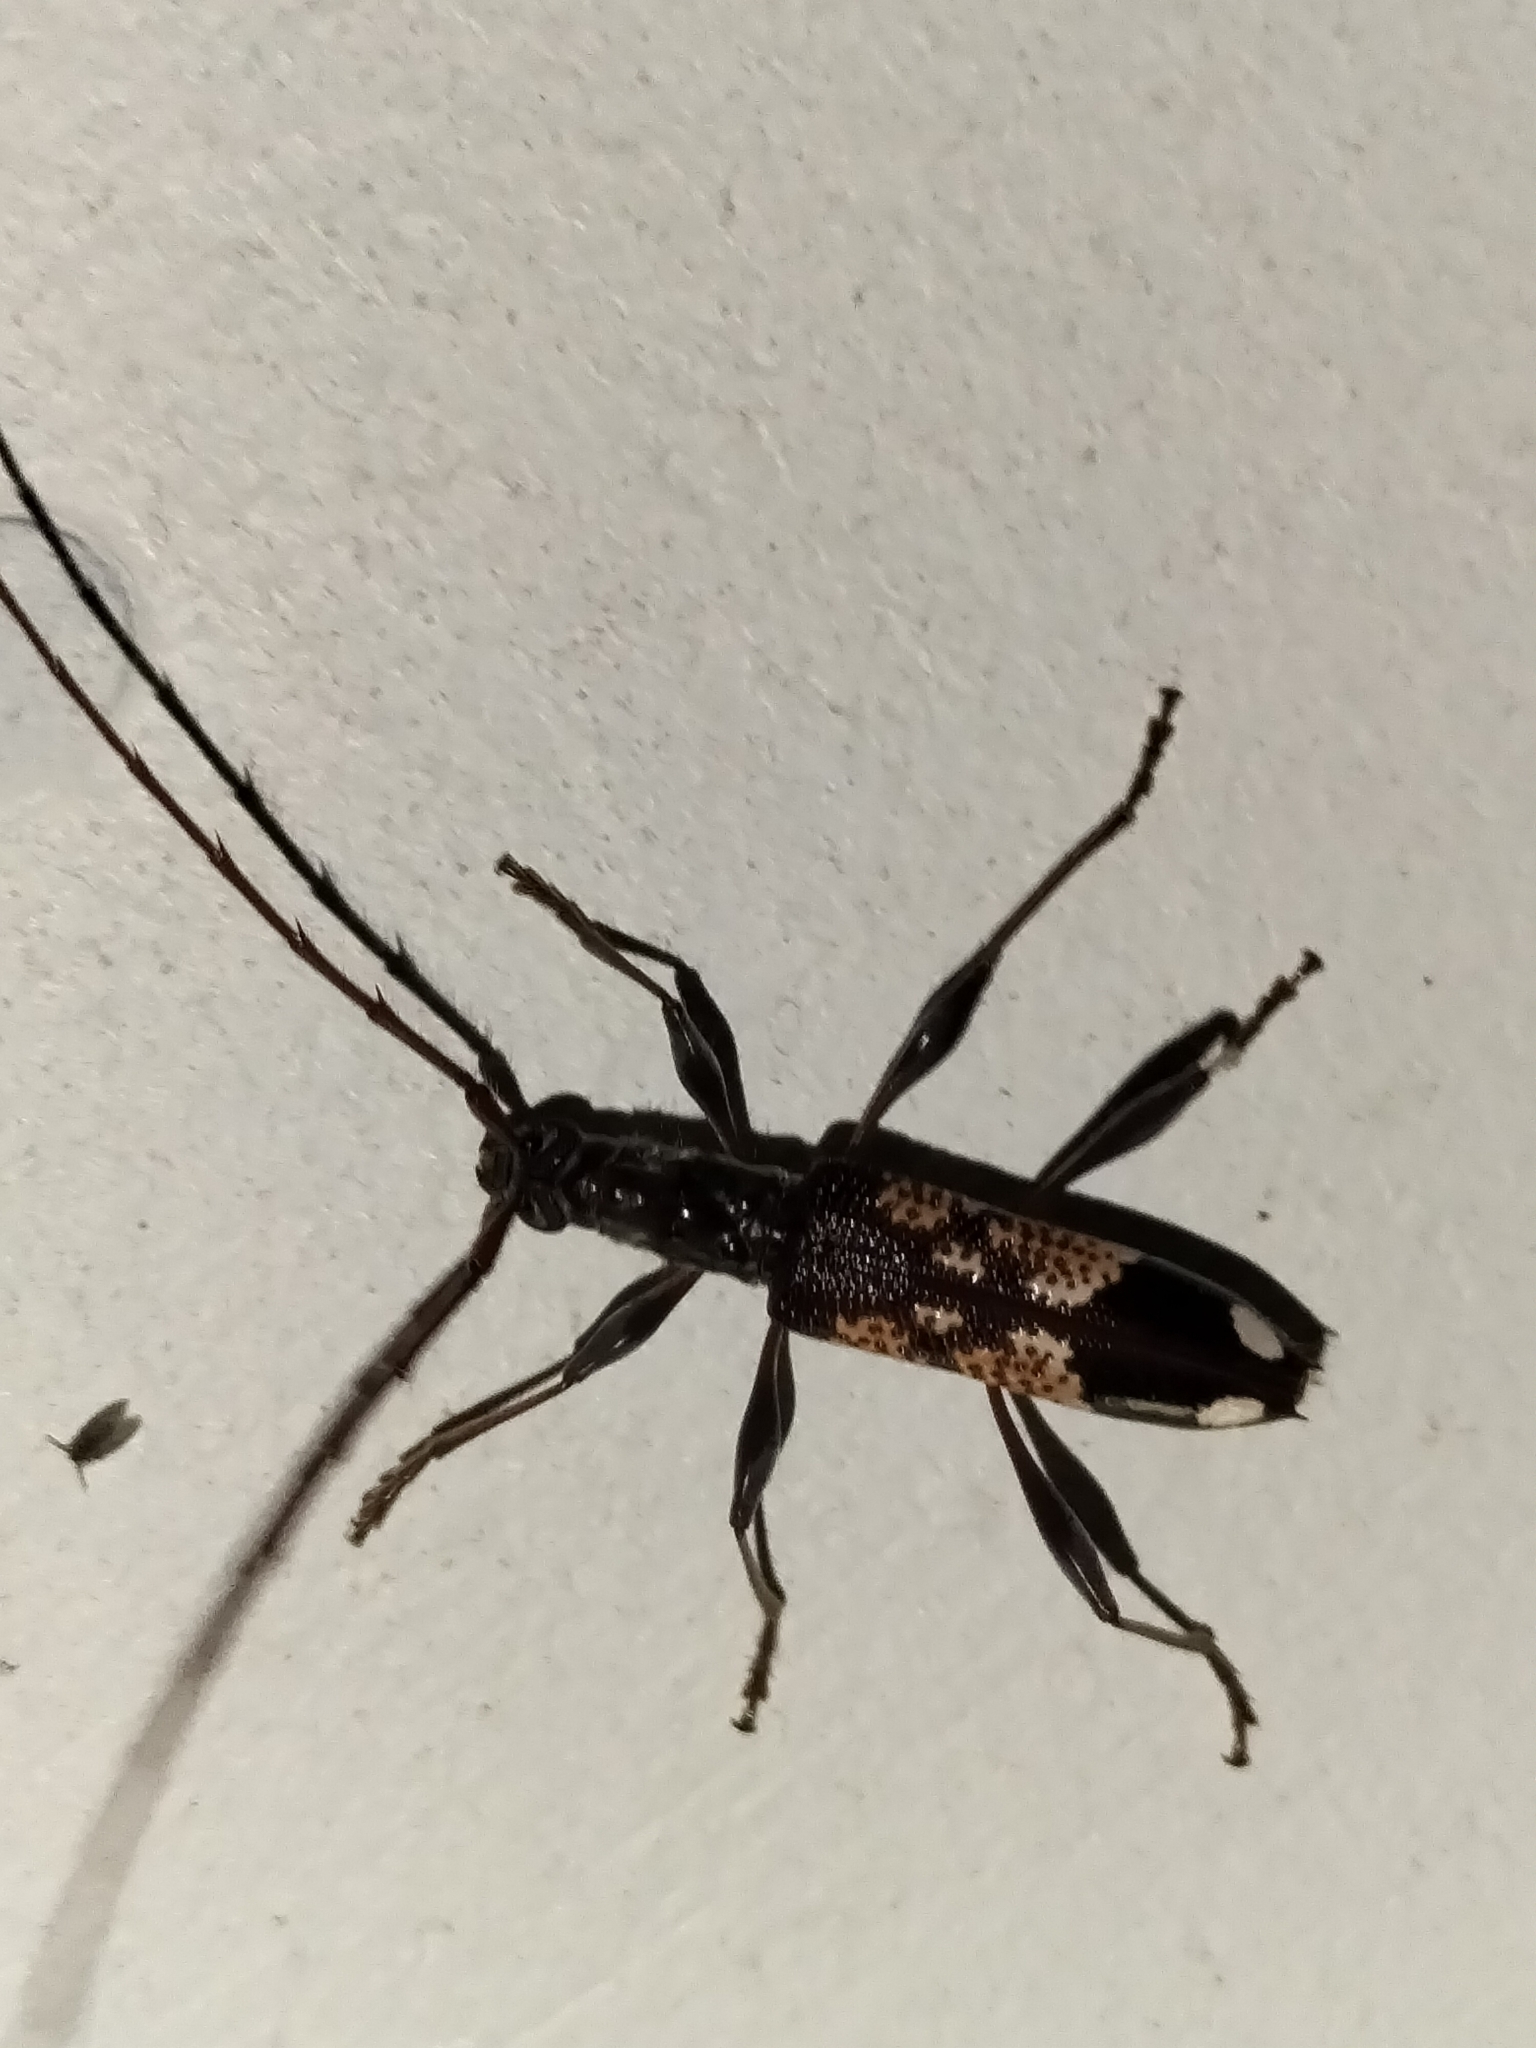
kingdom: Animalia
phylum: Arthropoda
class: Insecta
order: Coleoptera
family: Cerambycidae
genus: Coptocercus
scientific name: Coptocercus vicinus
